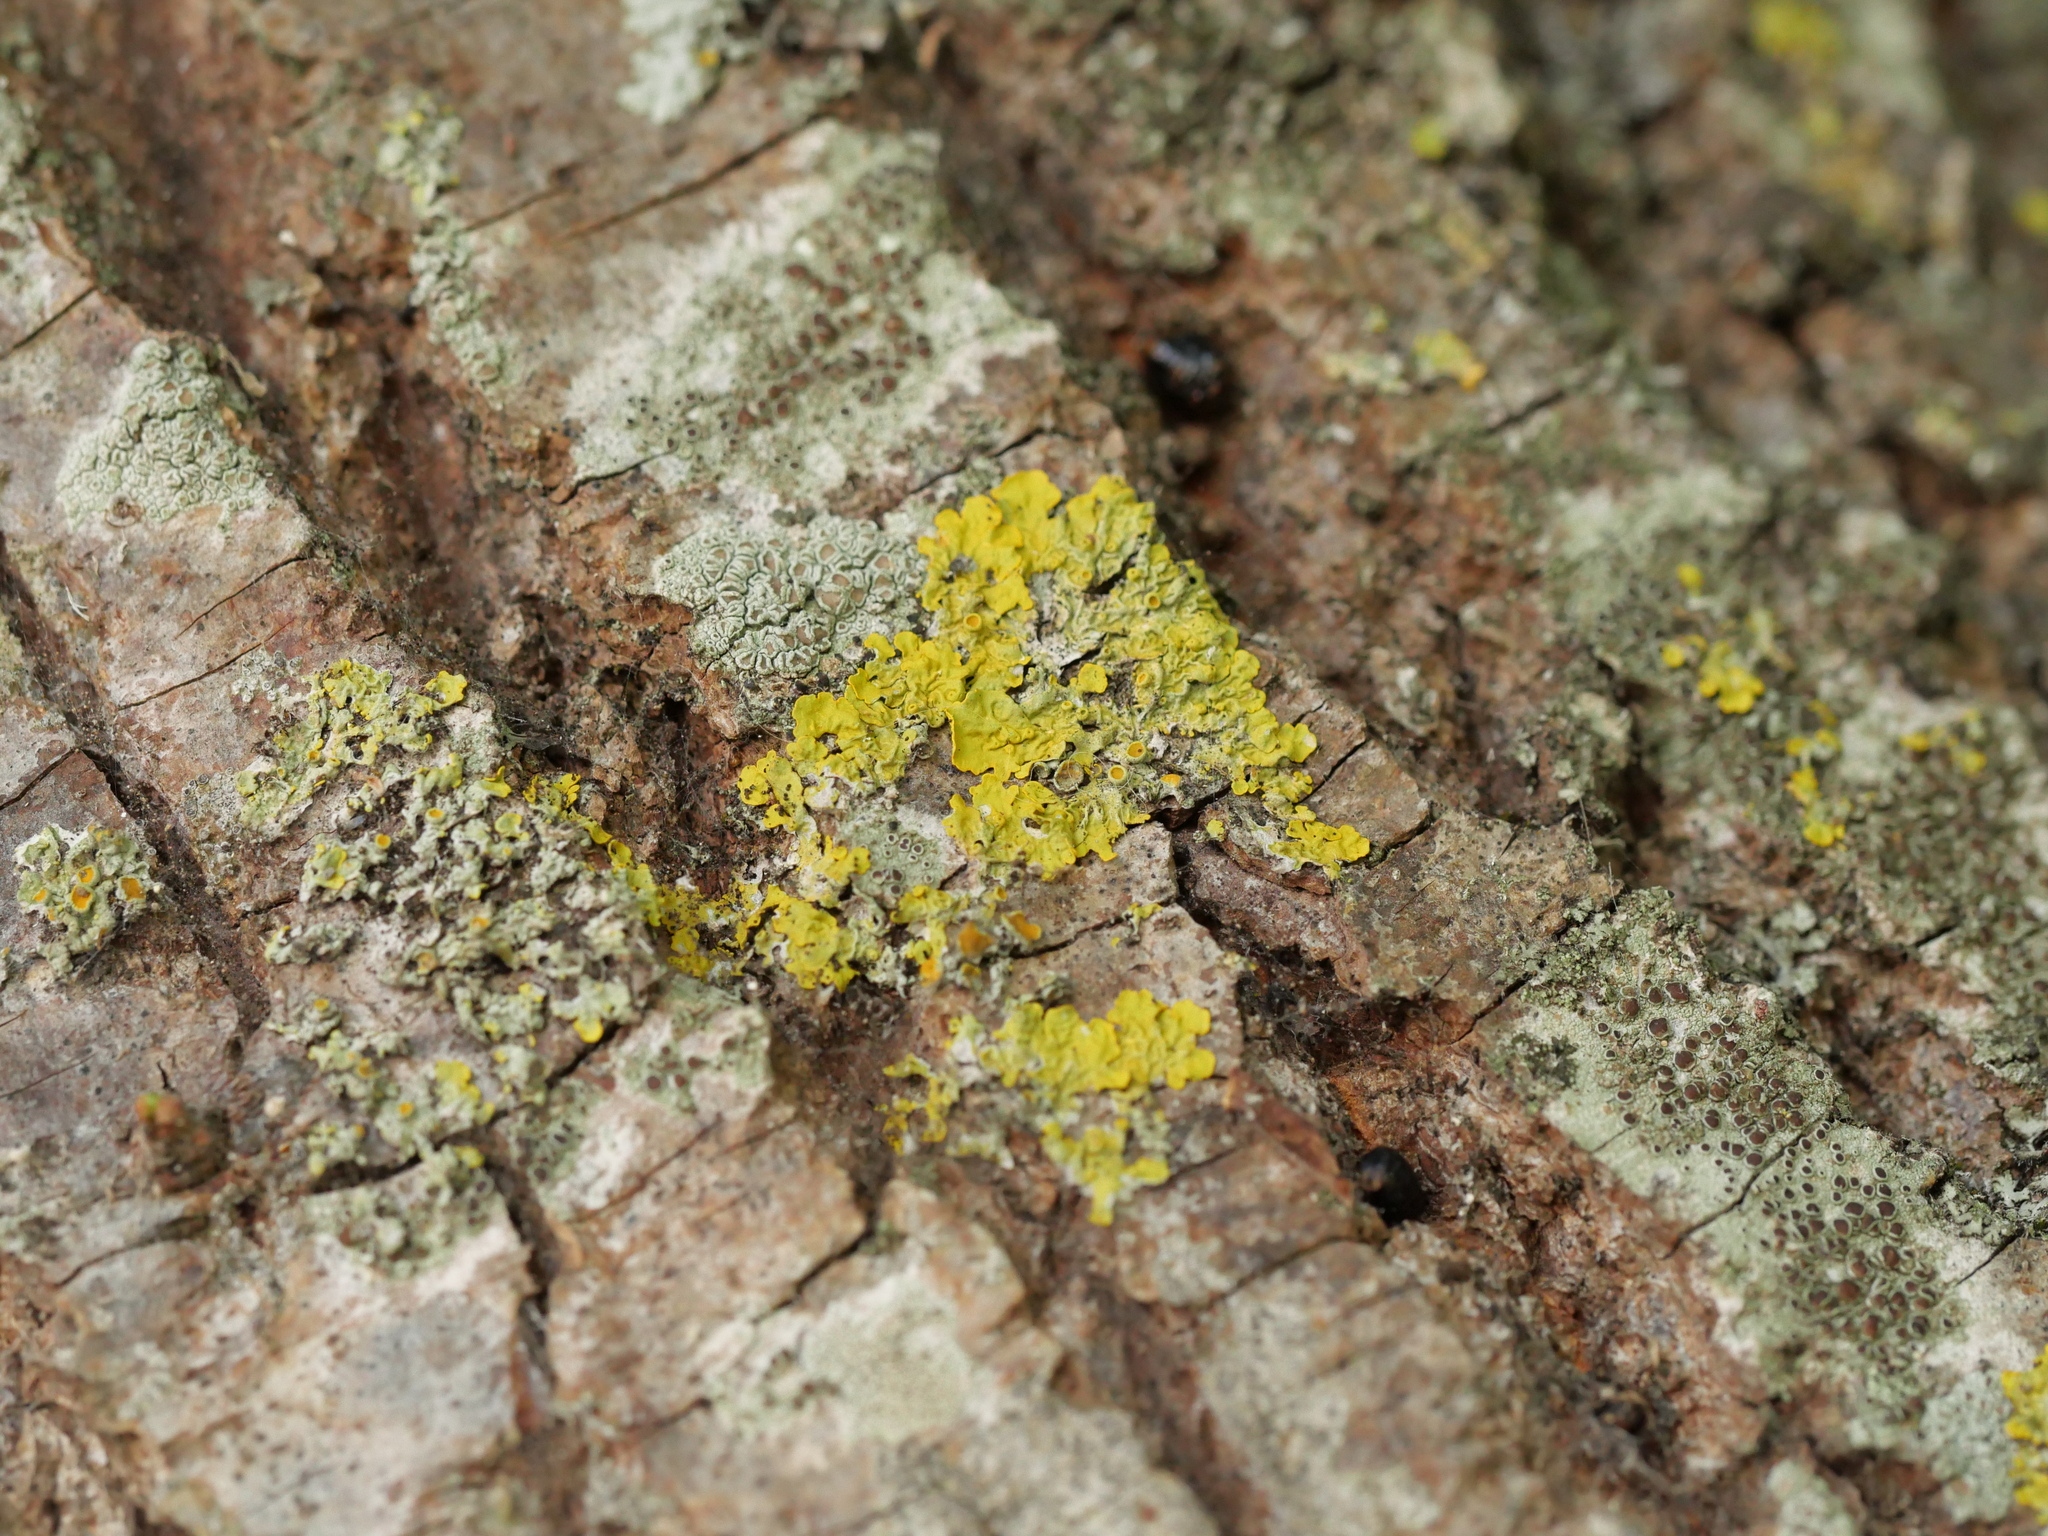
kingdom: Fungi
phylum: Ascomycota
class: Lecanoromycetes
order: Teloschistales
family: Teloschistaceae
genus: Xanthoria
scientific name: Xanthoria parietina
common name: Common orange lichen
